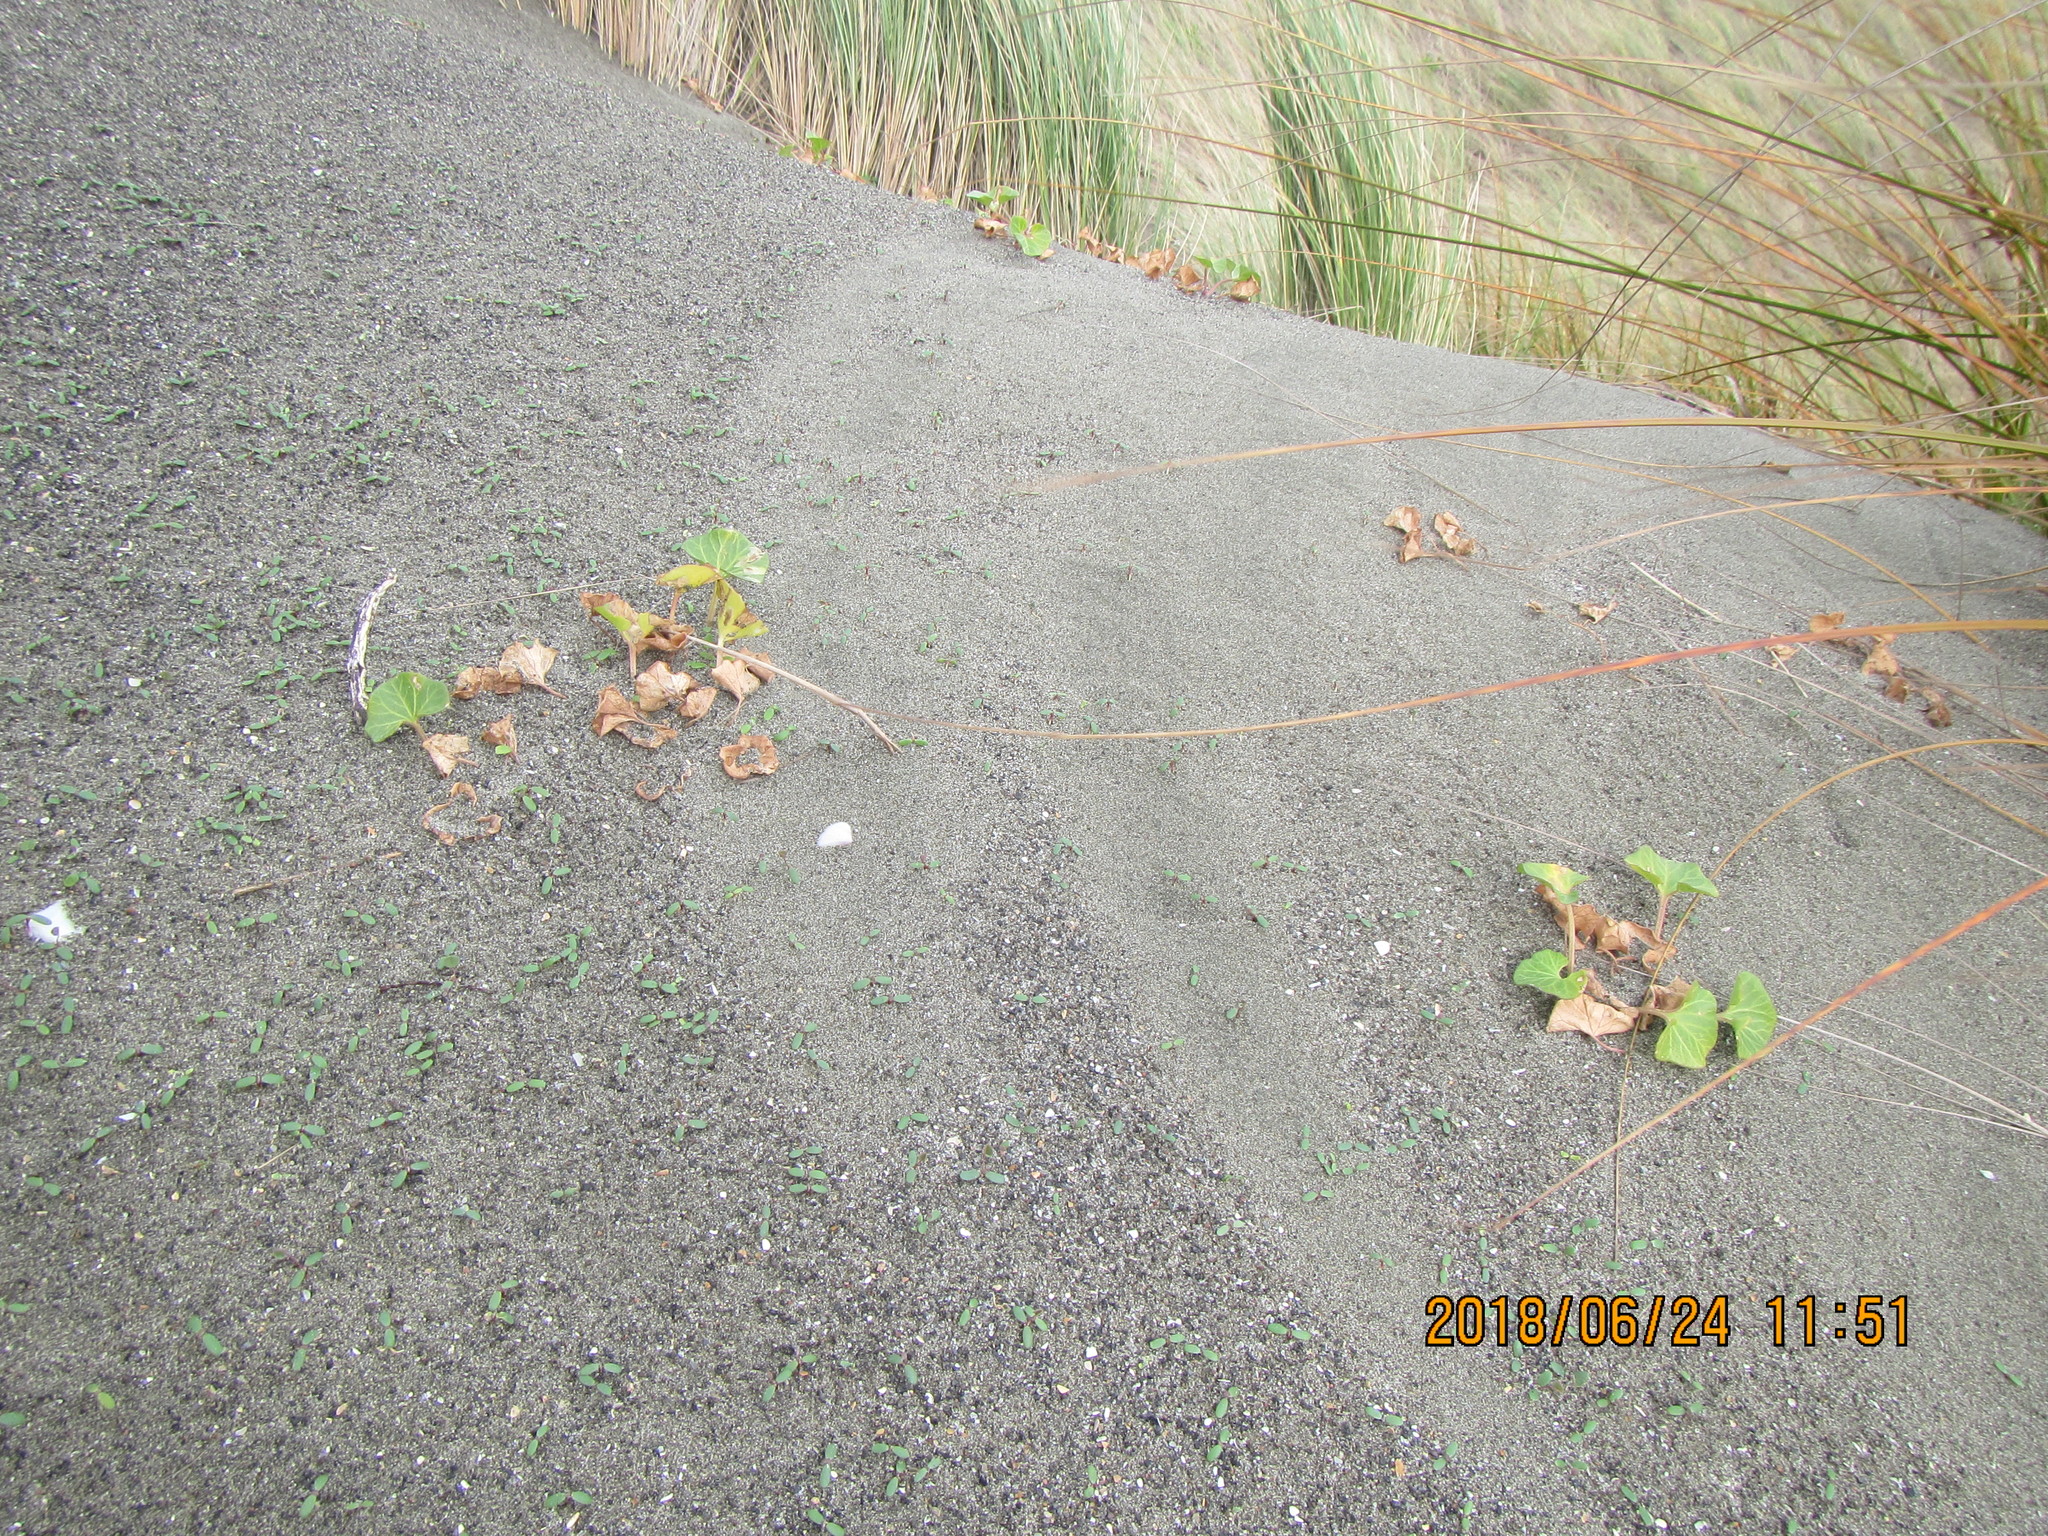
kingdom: Plantae
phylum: Tracheophyta
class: Magnoliopsida
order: Solanales
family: Convolvulaceae
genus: Calystegia
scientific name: Calystegia soldanella
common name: Sea bindweed
